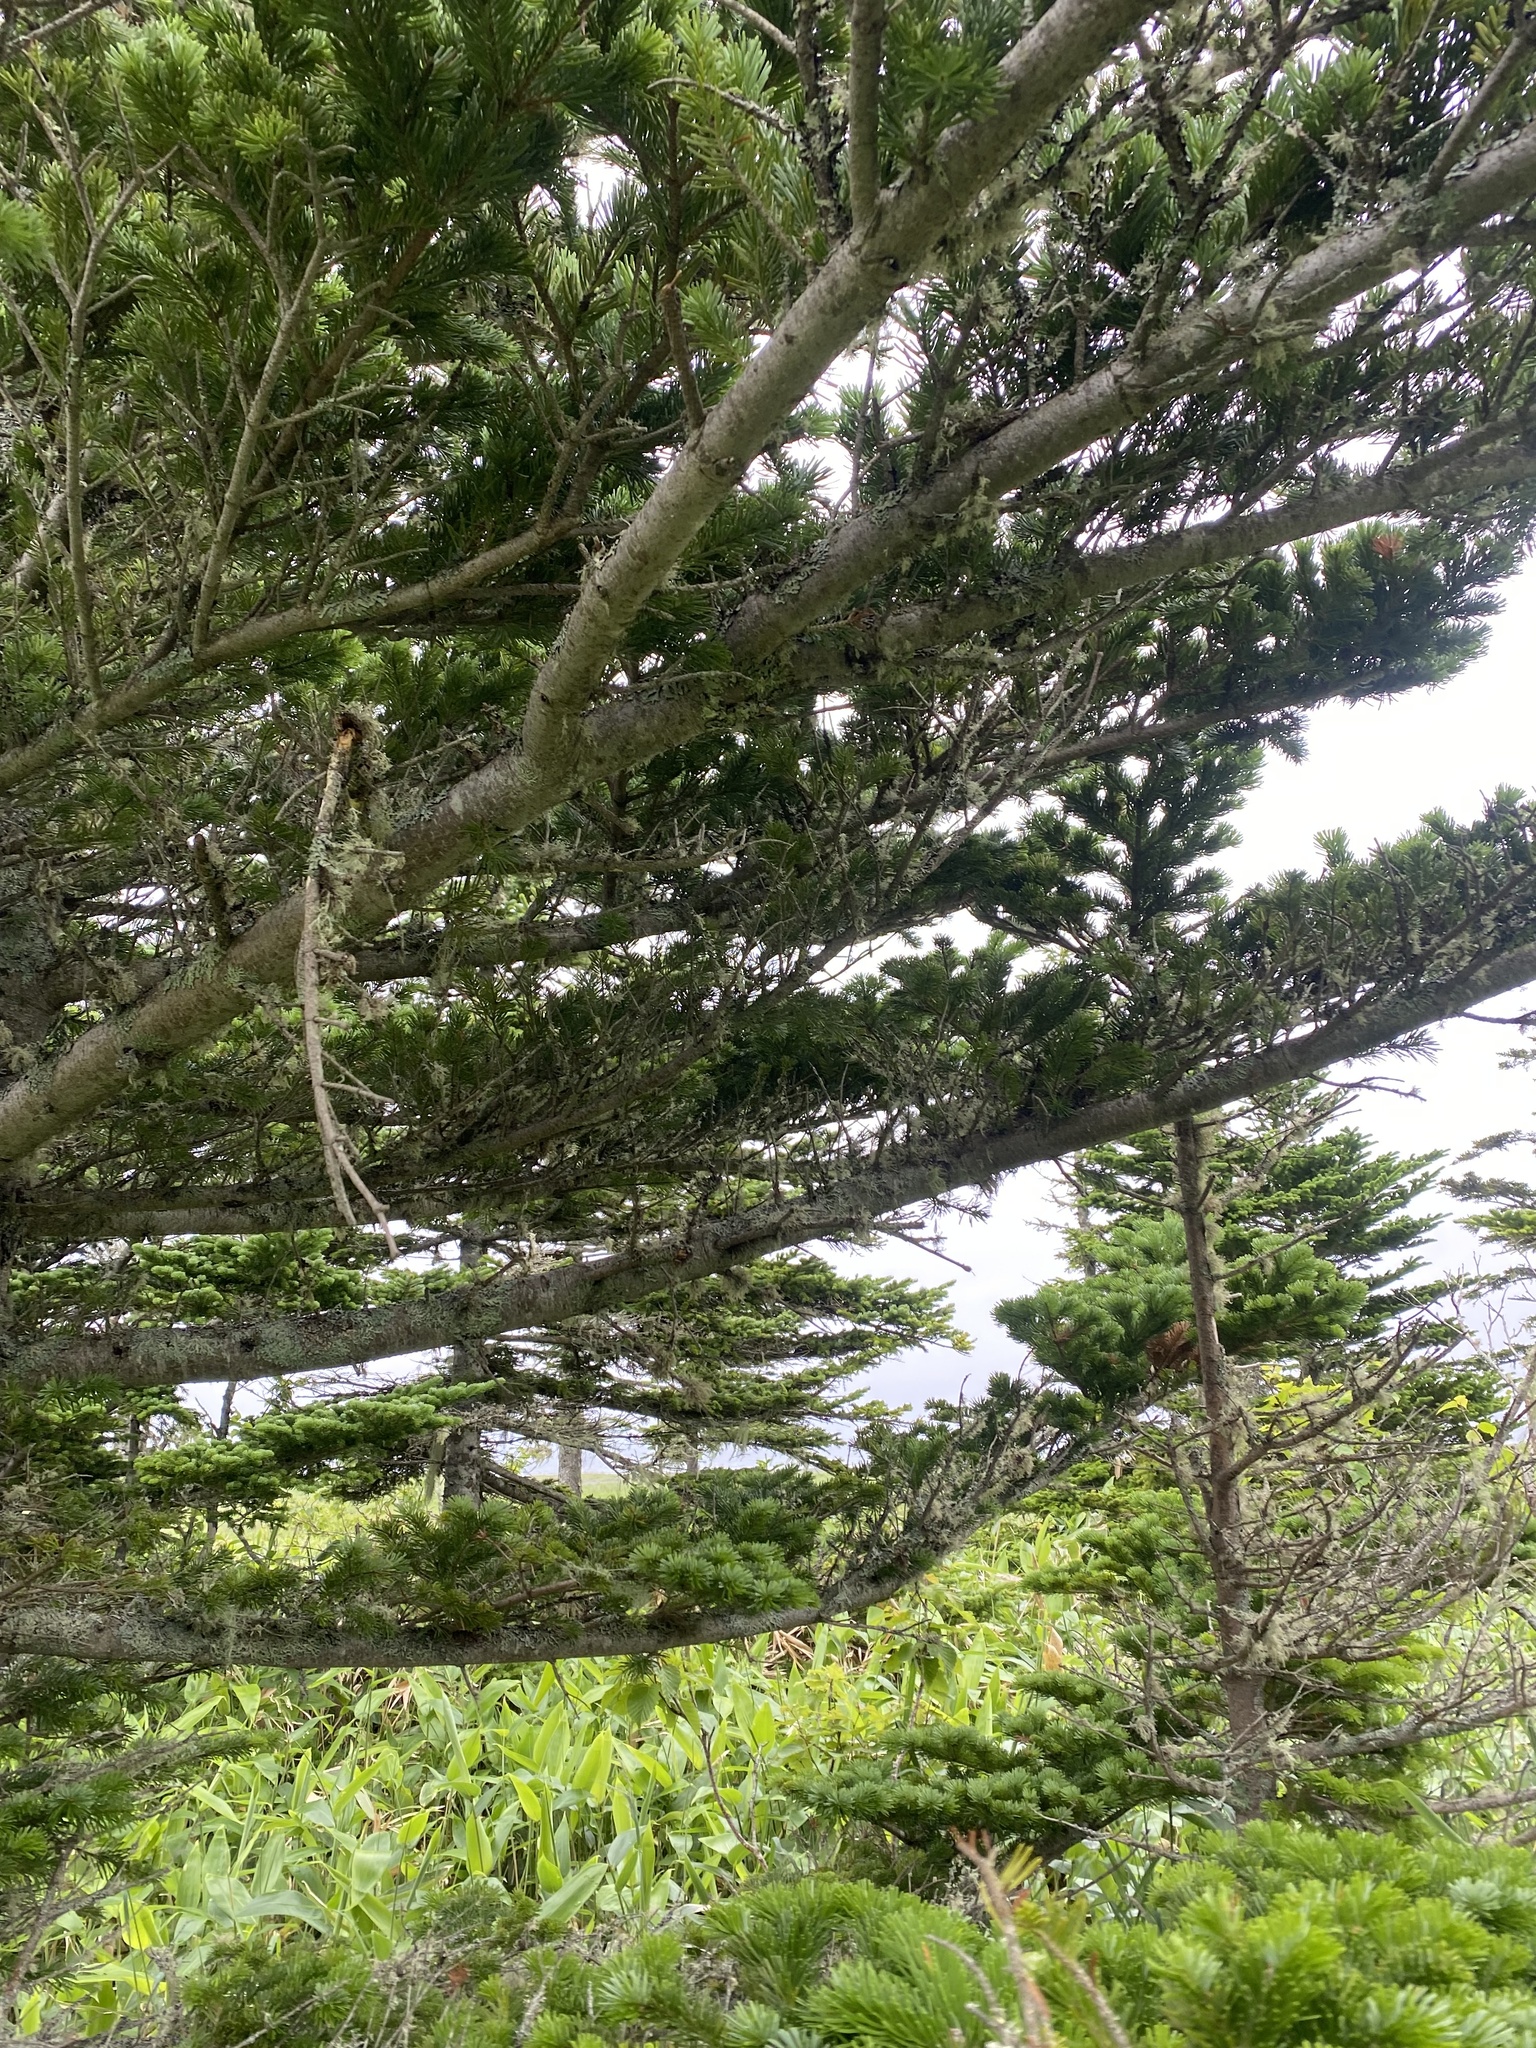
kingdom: Plantae
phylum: Tracheophyta
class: Pinopsida
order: Pinales
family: Pinaceae
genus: Abies
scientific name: Abies sachalinensis
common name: Sakhalin fir
